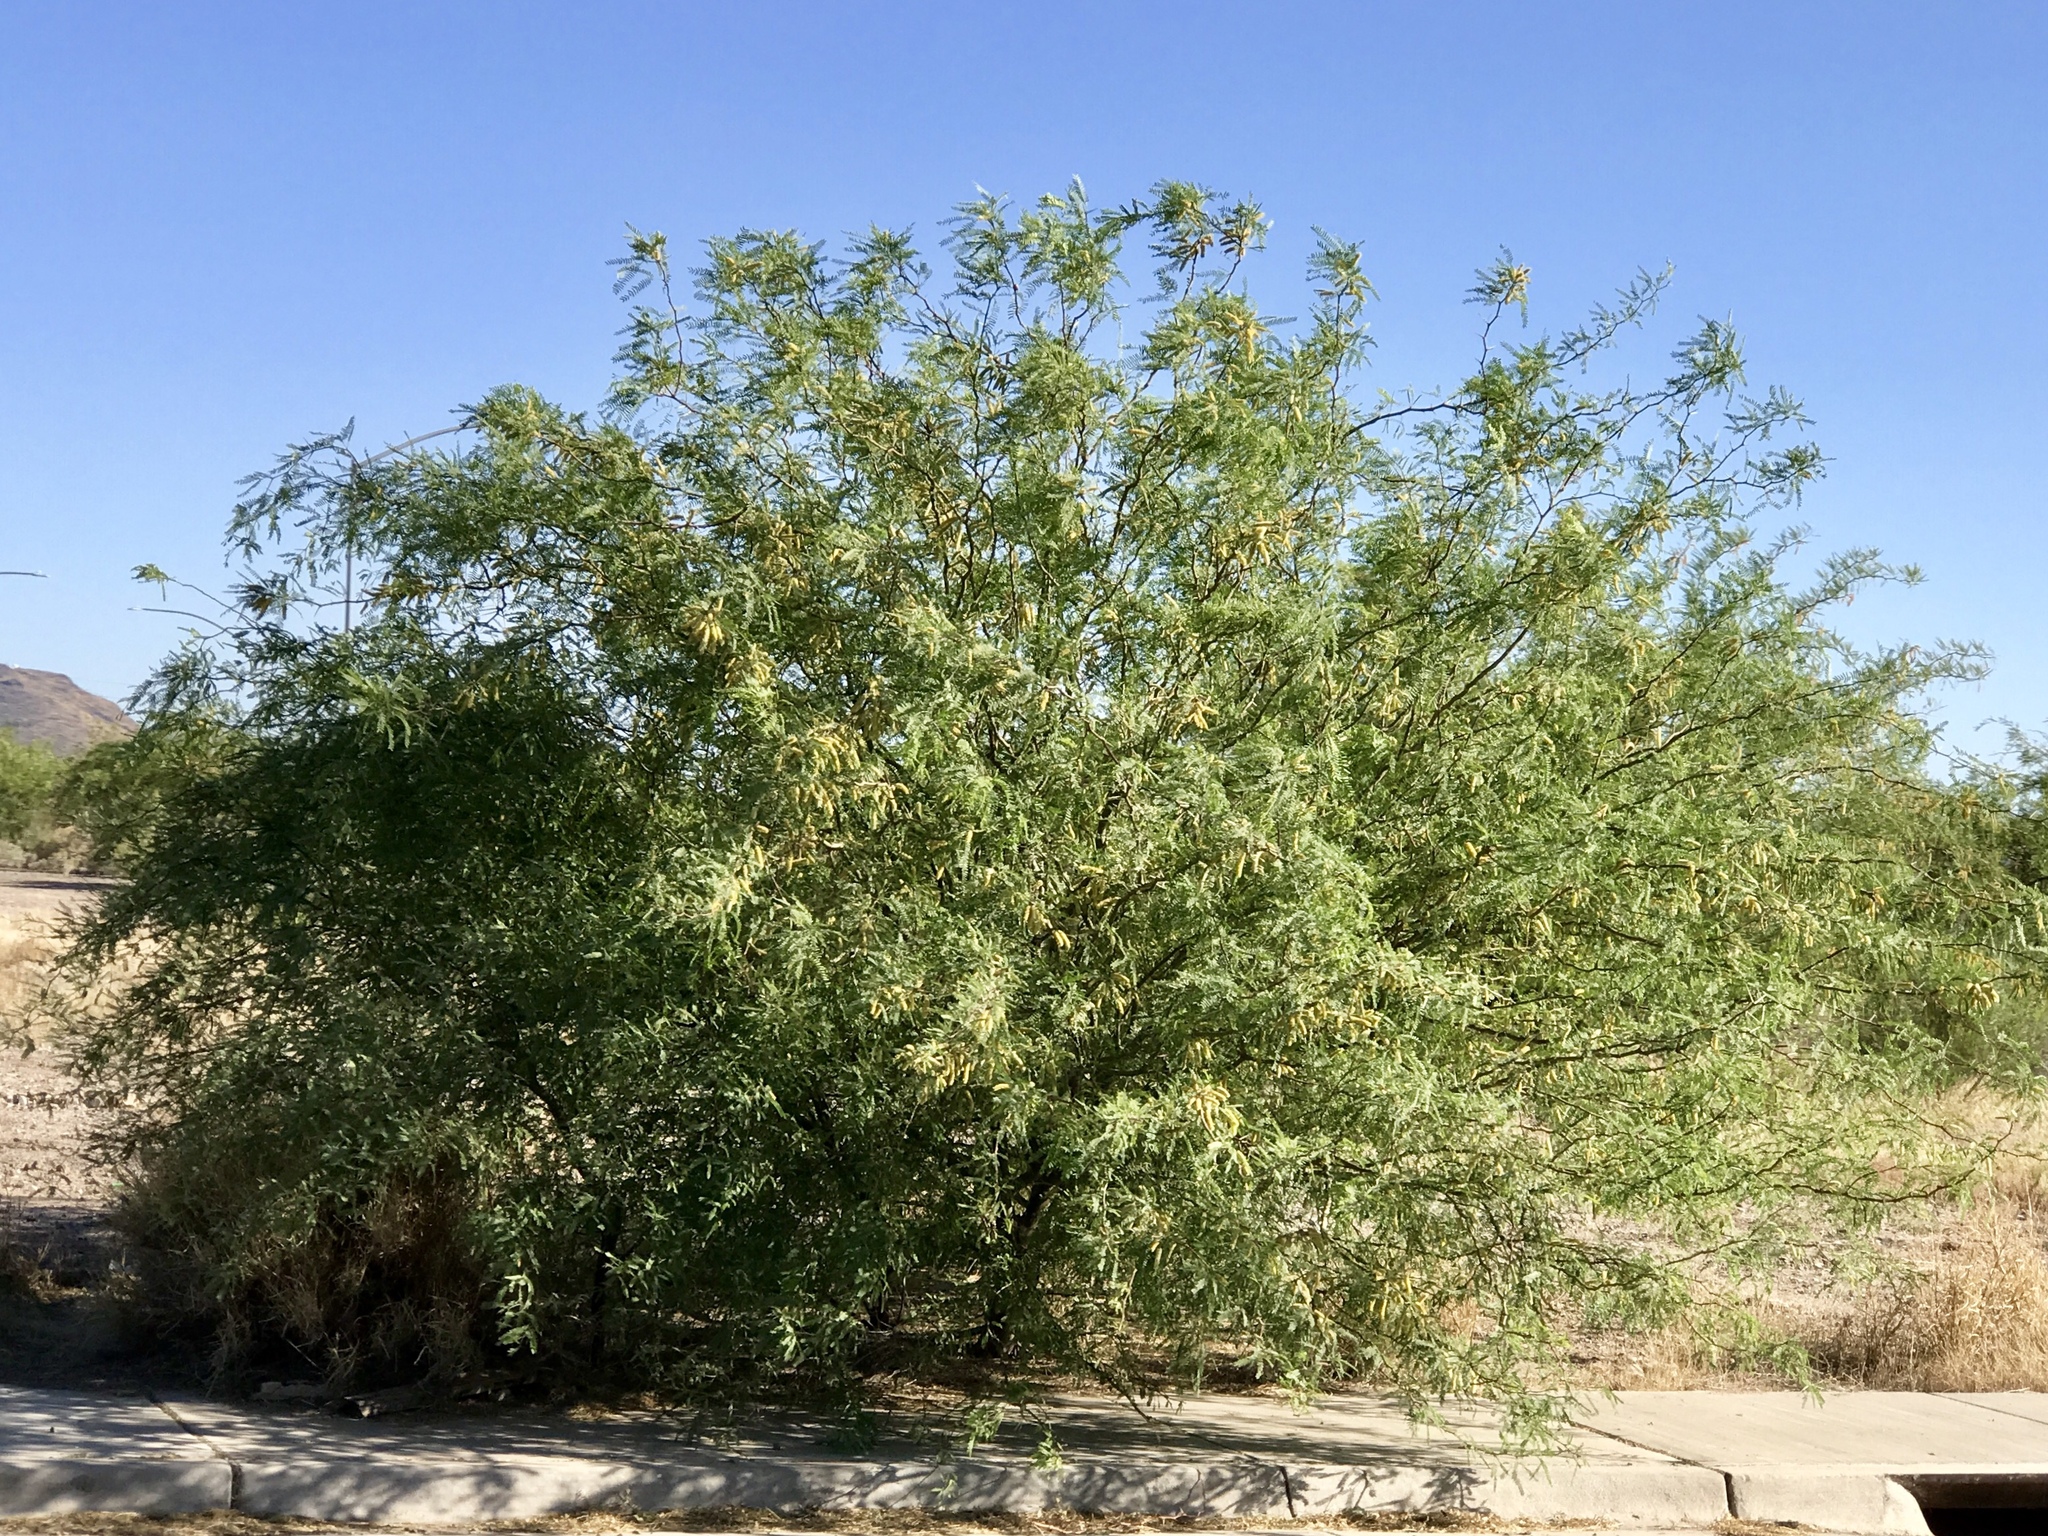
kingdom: Plantae
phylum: Tracheophyta
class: Magnoliopsida
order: Fabales
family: Fabaceae
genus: Prosopis
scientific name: Prosopis velutina
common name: Velvet mesquite
